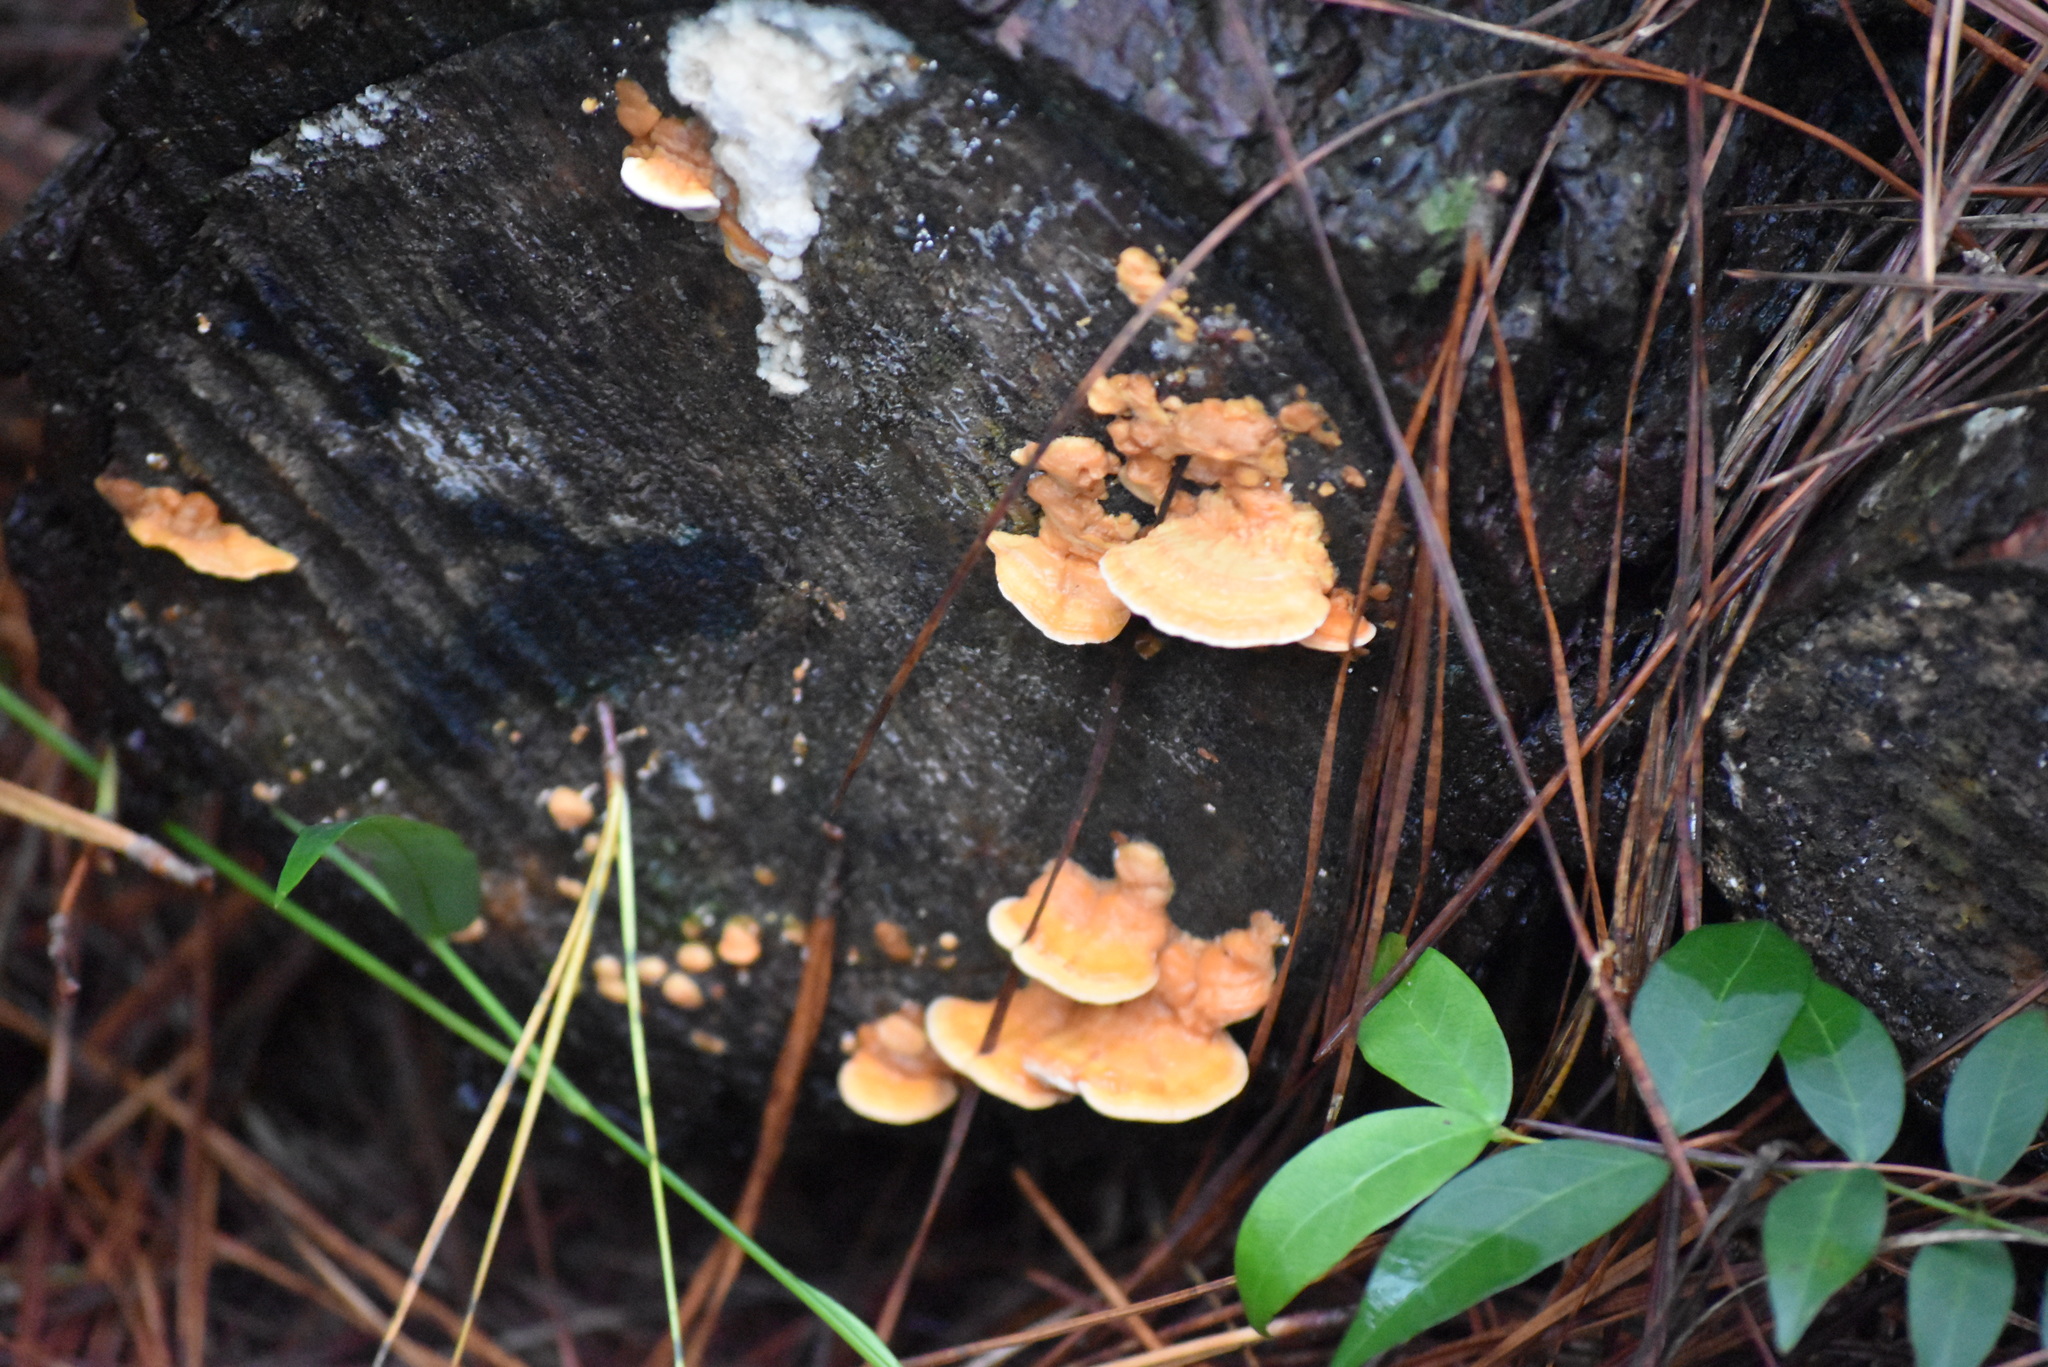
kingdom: Fungi
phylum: Basidiomycota
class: Agaricomycetes
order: Polyporales
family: Polyporaceae
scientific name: Polyporaceae
